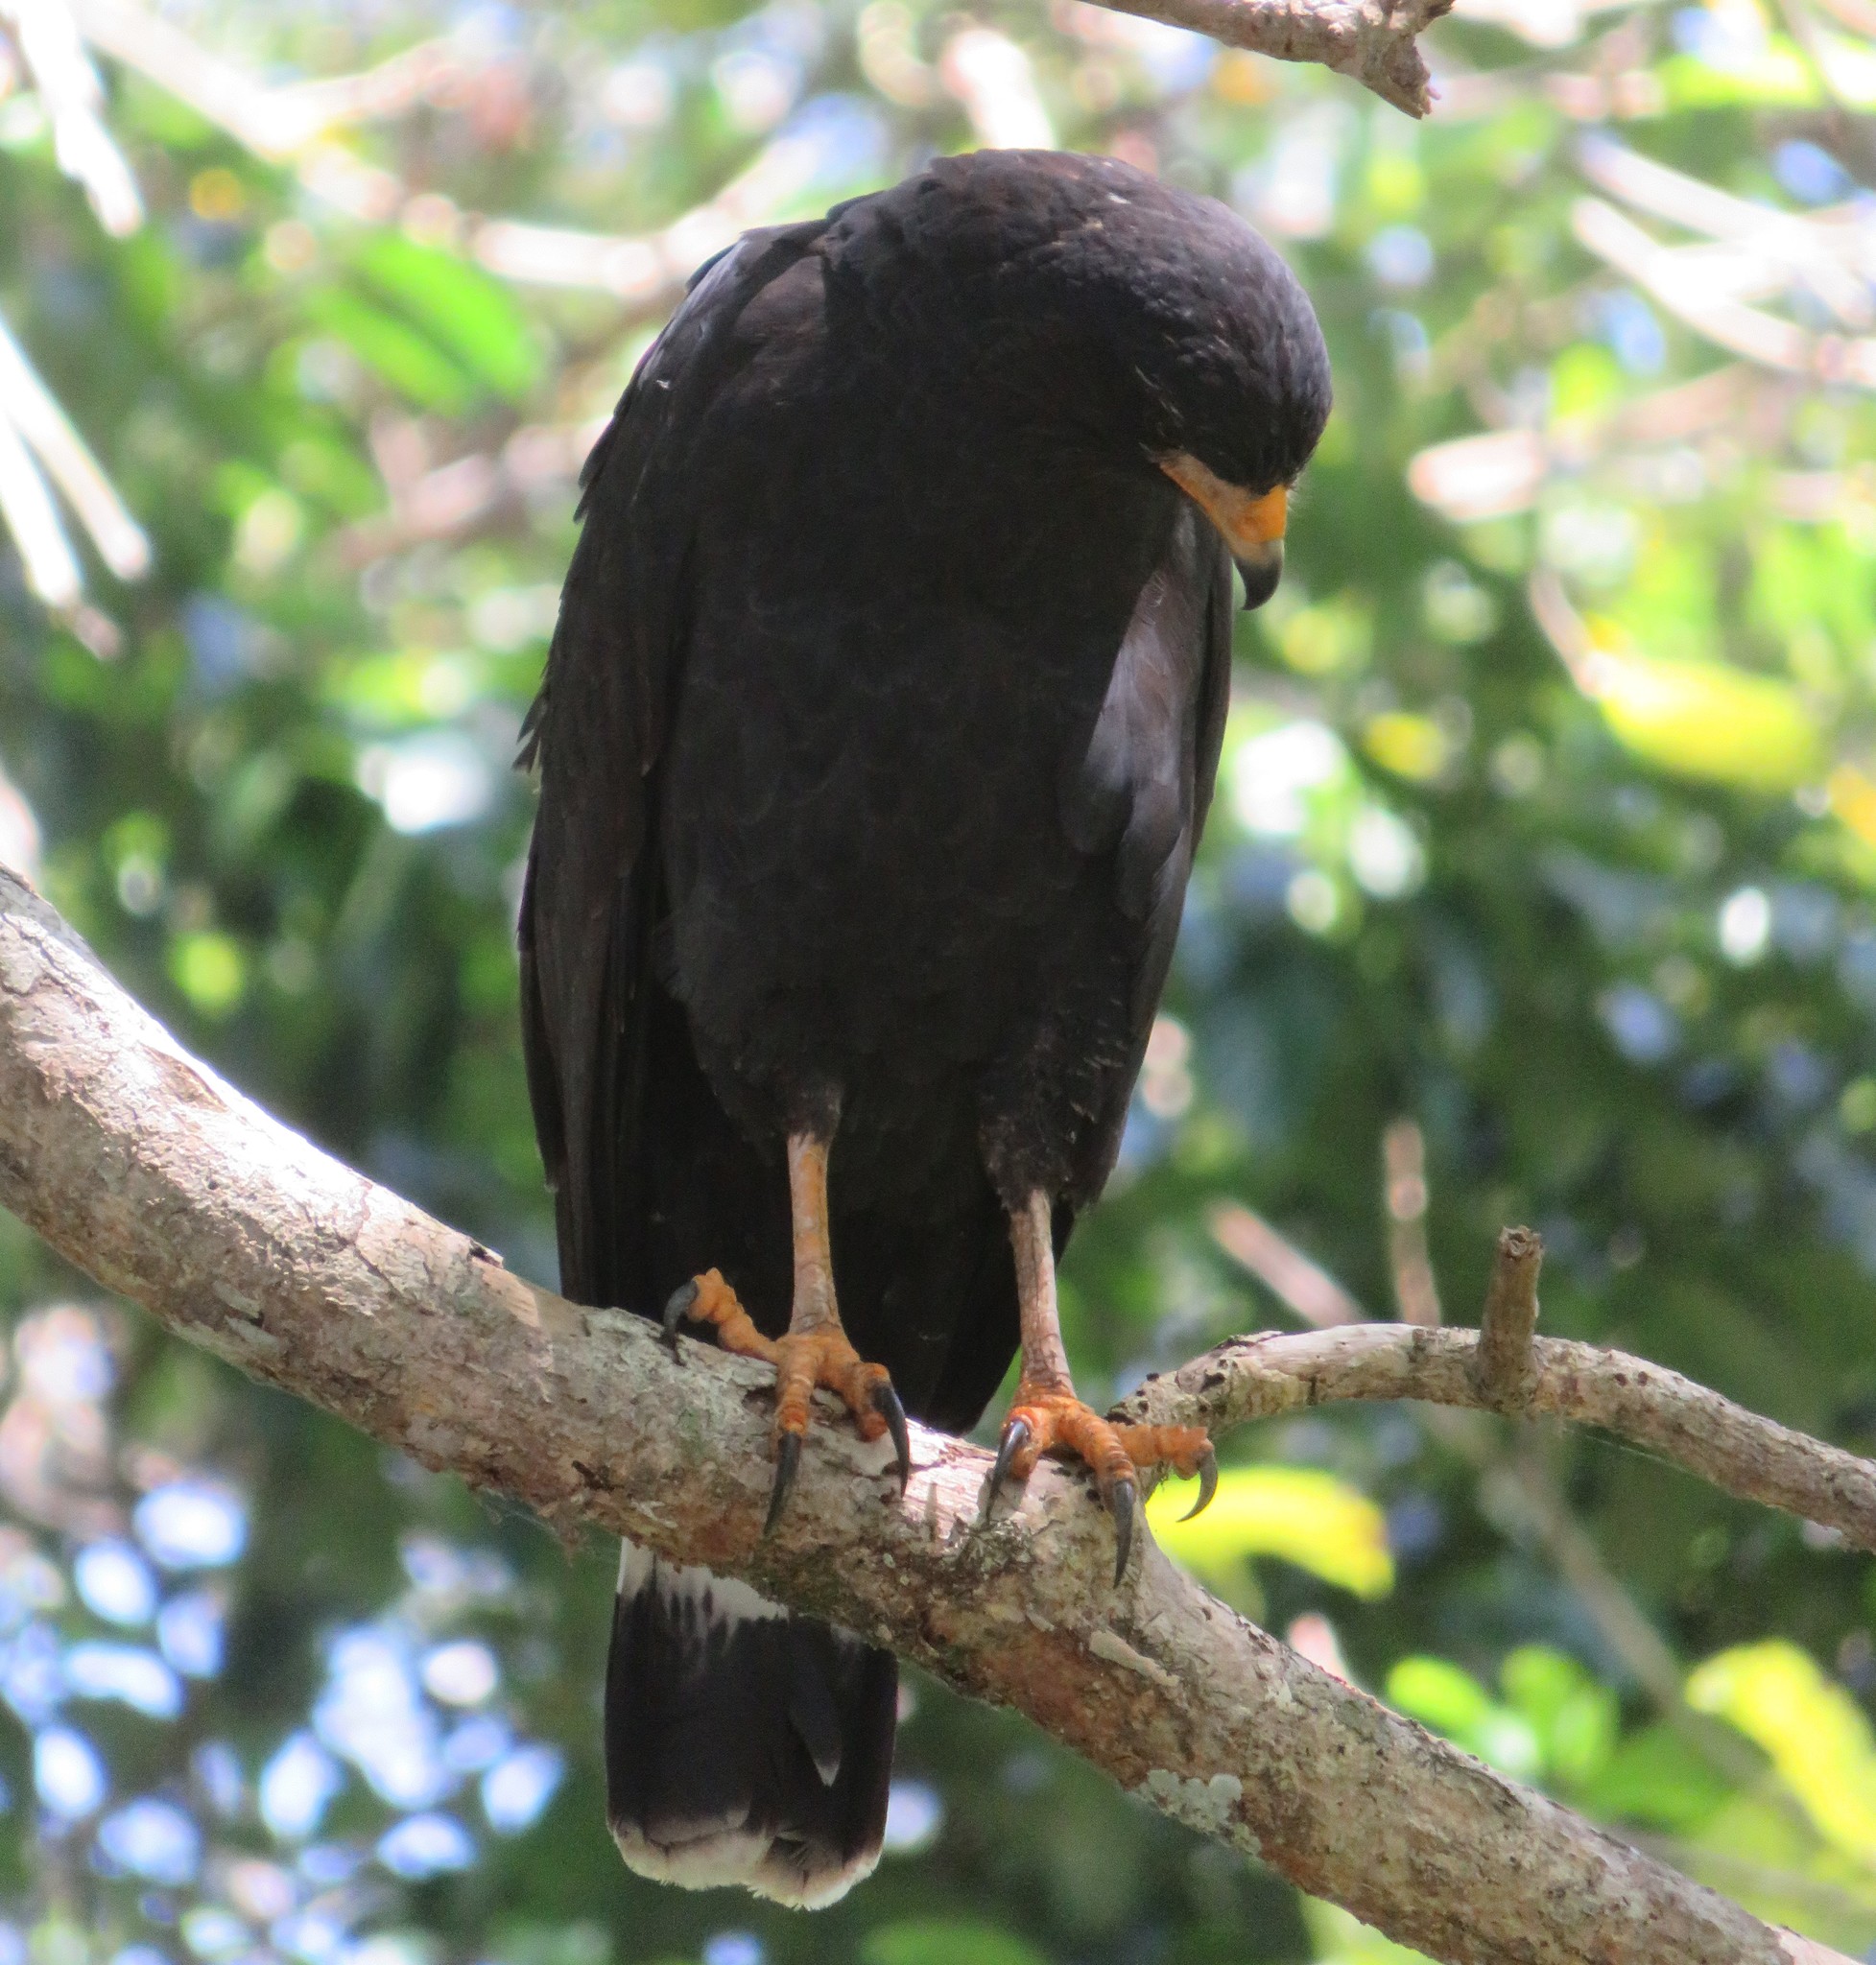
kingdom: Animalia
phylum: Chordata
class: Aves
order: Accipitriformes
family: Accipitridae
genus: Buteogallus
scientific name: Buteogallus anthracinus
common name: Common black hawk
